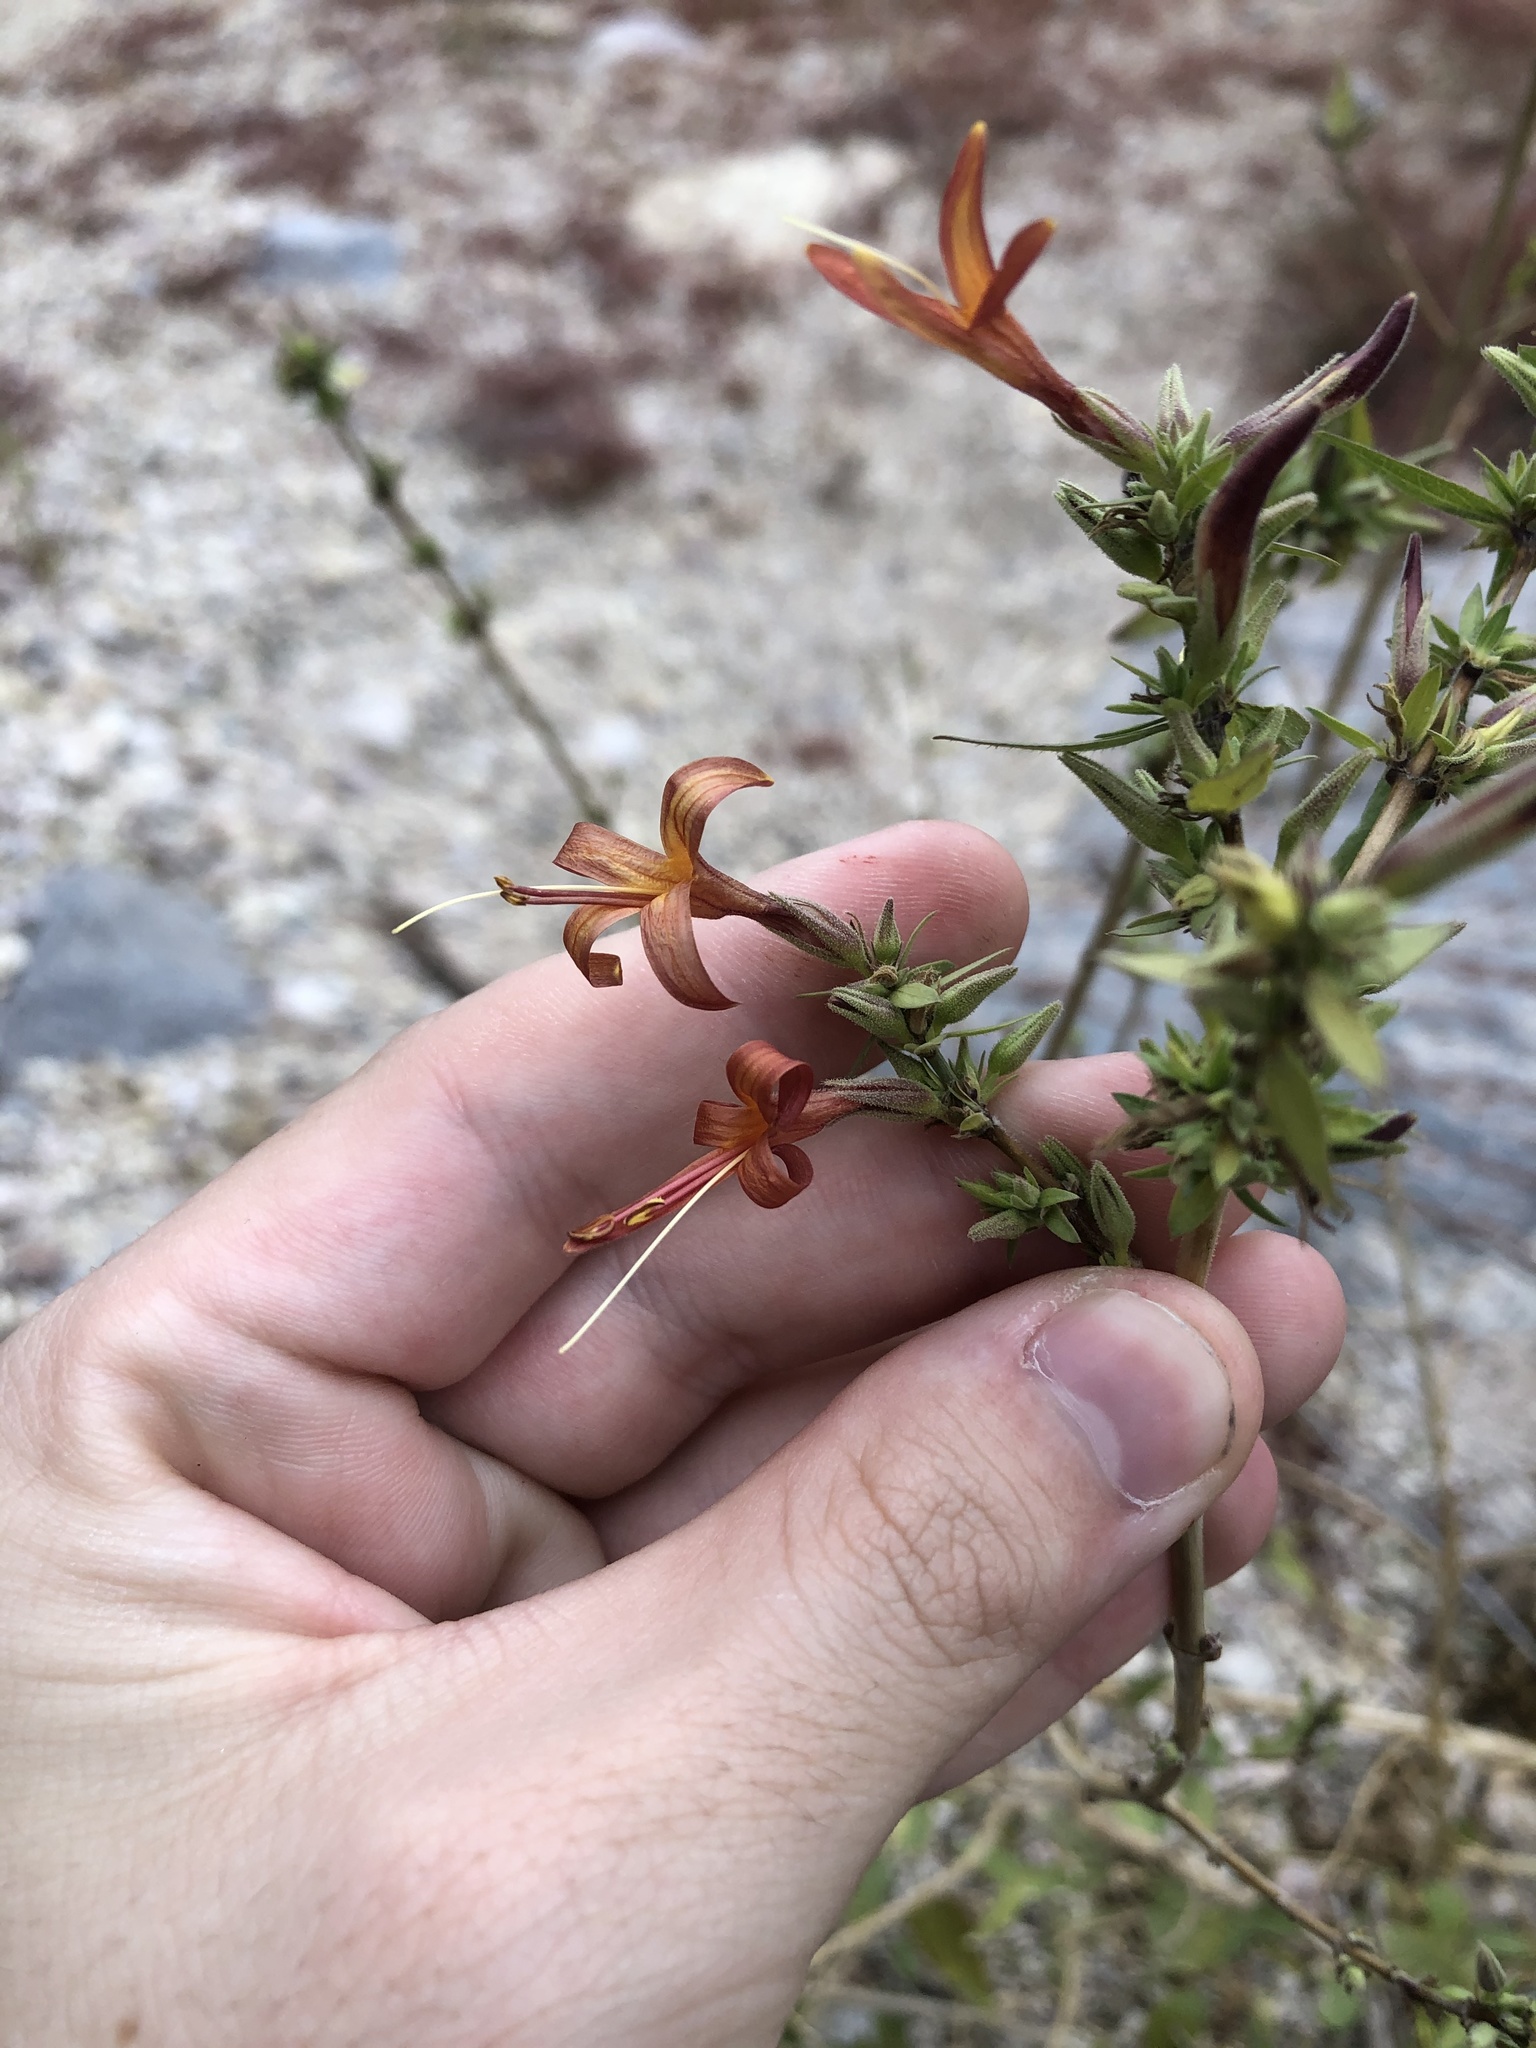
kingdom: Plantae
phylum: Tracheophyta
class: Magnoliopsida
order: Lamiales
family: Acanthaceae
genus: Anisacanthus
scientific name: Anisacanthus thurberi
